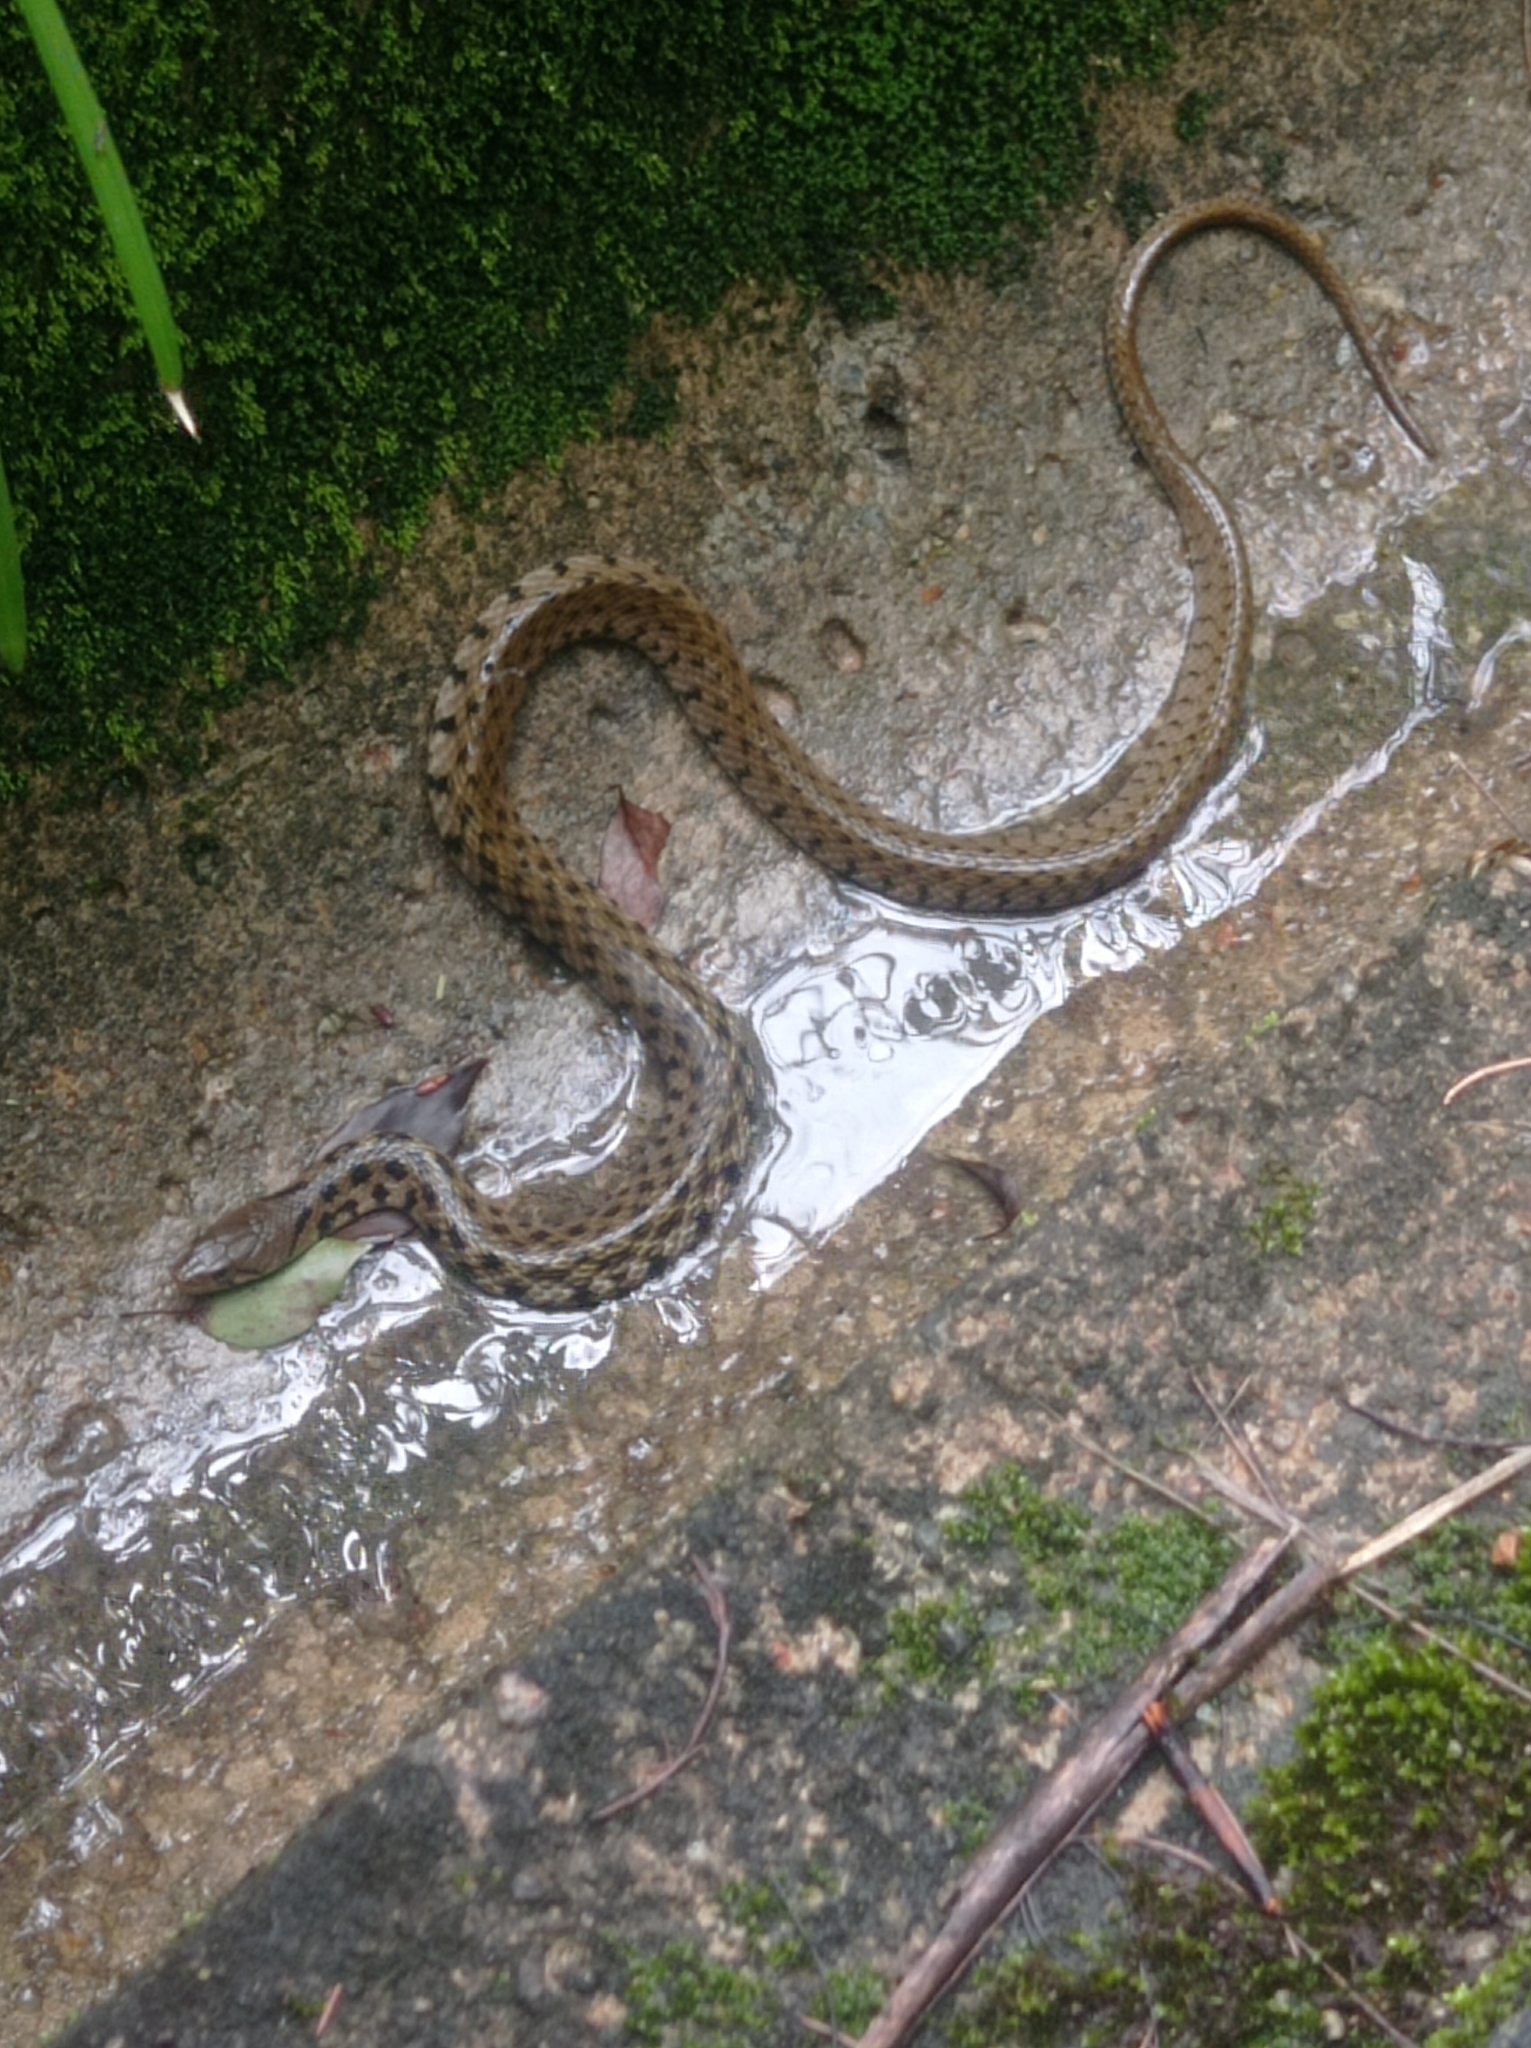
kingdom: Animalia
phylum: Chordata
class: Squamata
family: Colubridae
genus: Fowlea
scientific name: Fowlea flavipunctatus
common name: Yellow-spotted keelback
